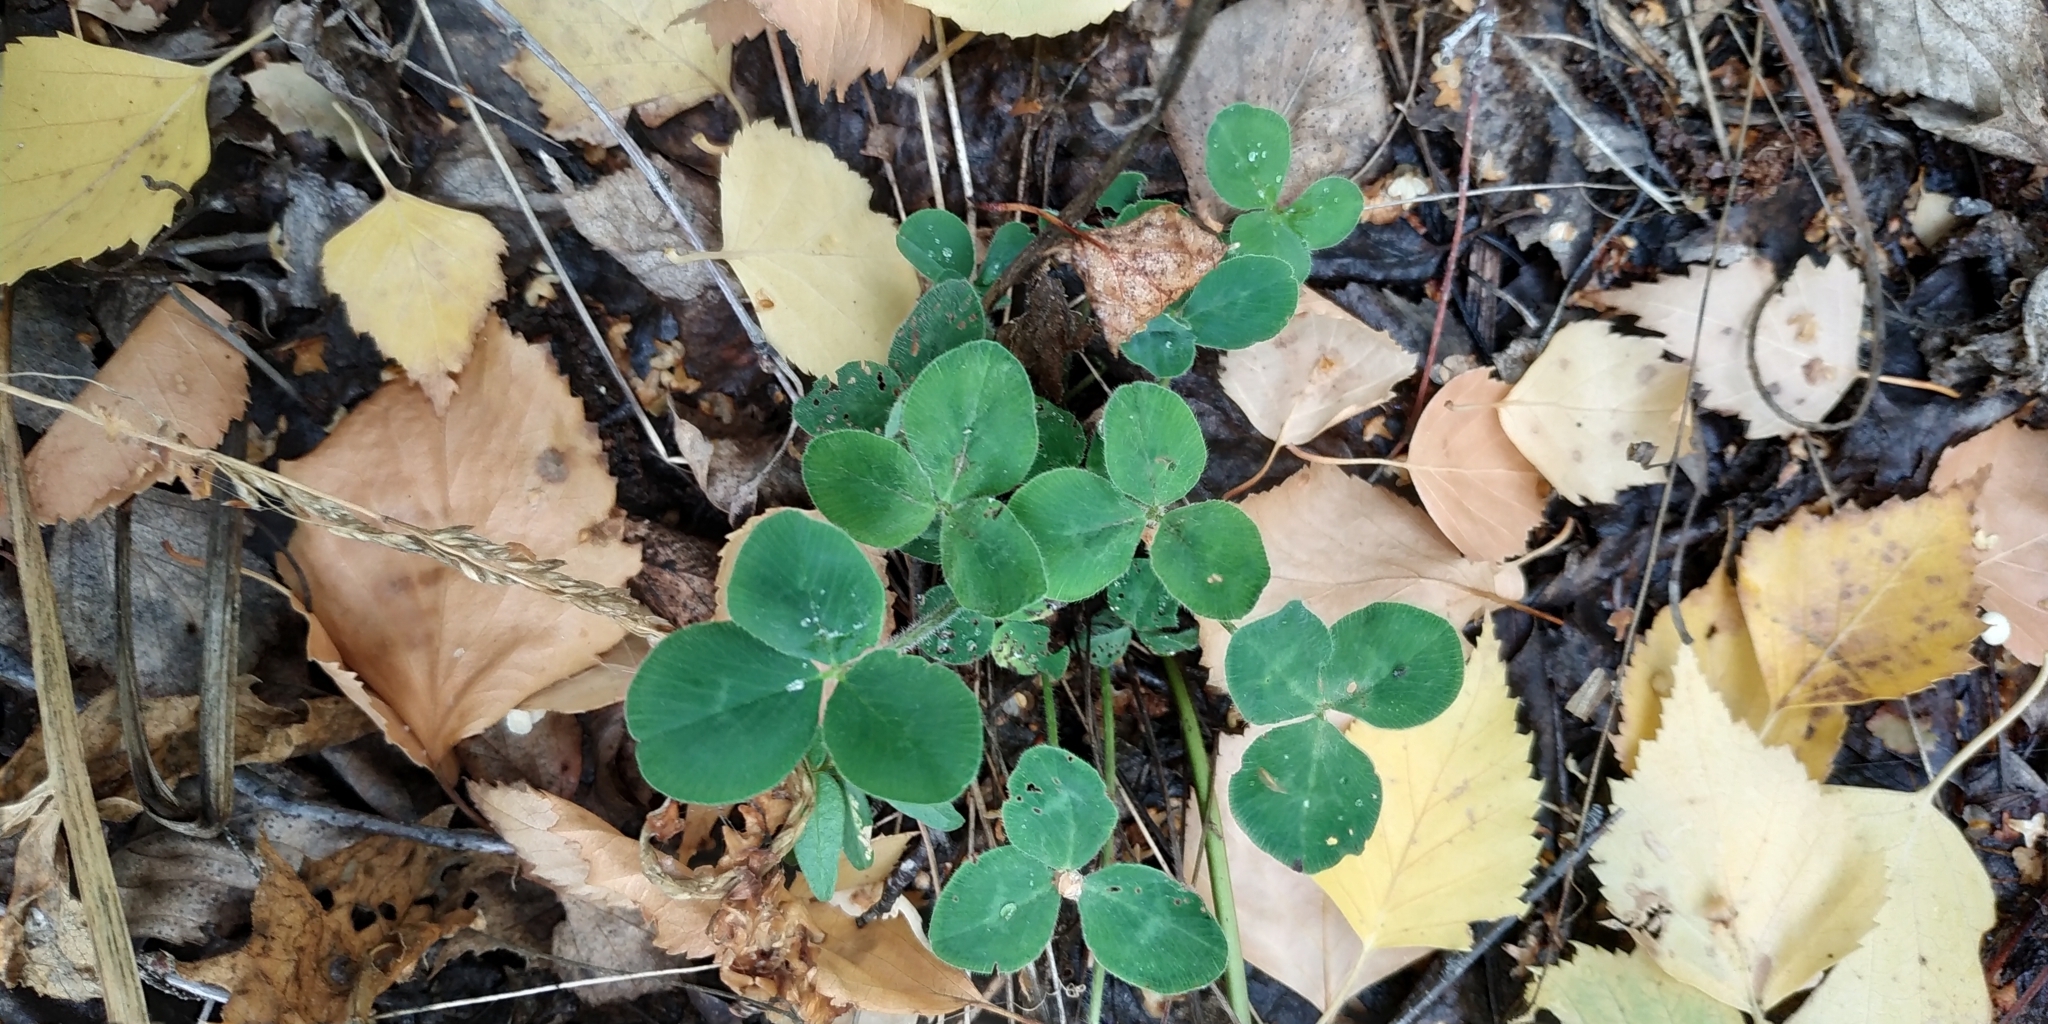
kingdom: Plantae
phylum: Tracheophyta
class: Magnoliopsida
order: Fabales
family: Fabaceae
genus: Trifolium
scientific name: Trifolium pratense
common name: Red clover
